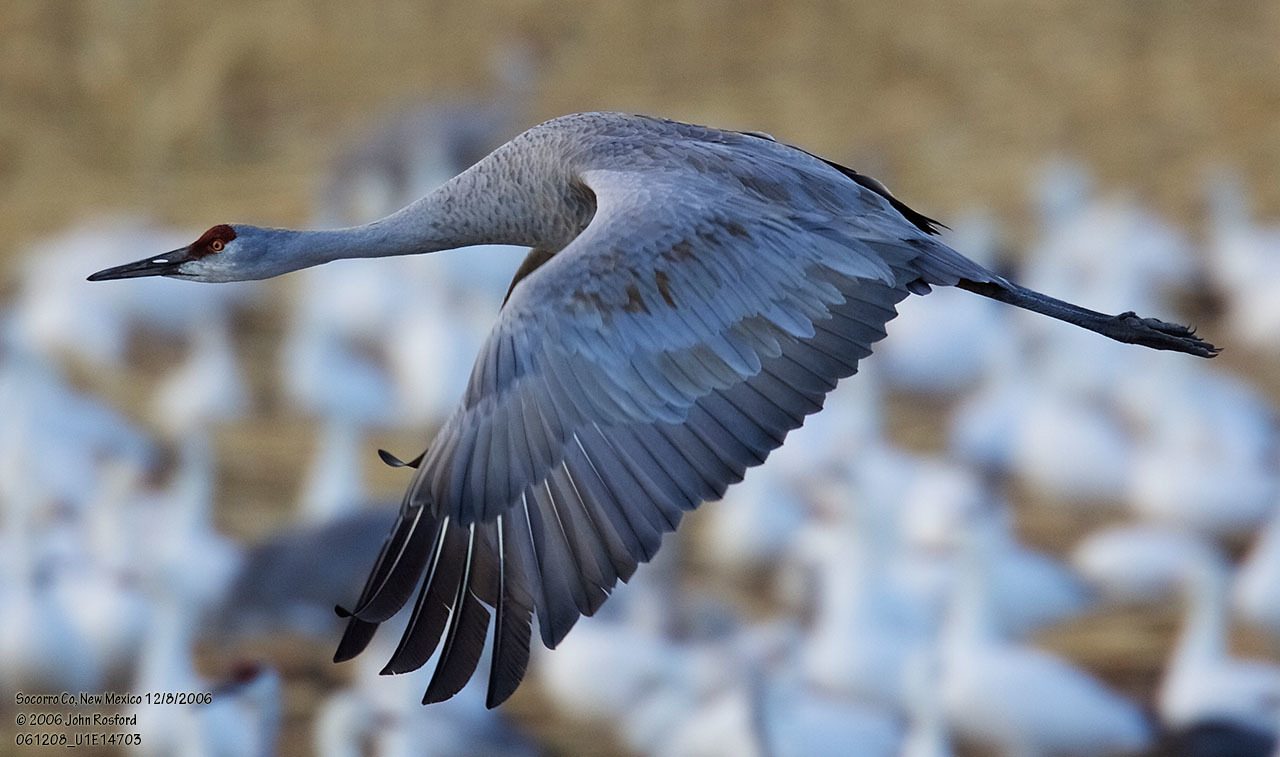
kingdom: Animalia
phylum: Chordata
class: Aves
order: Gruiformes
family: Gruidae
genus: Grus
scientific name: Grus canadensis
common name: Sandhill crane
